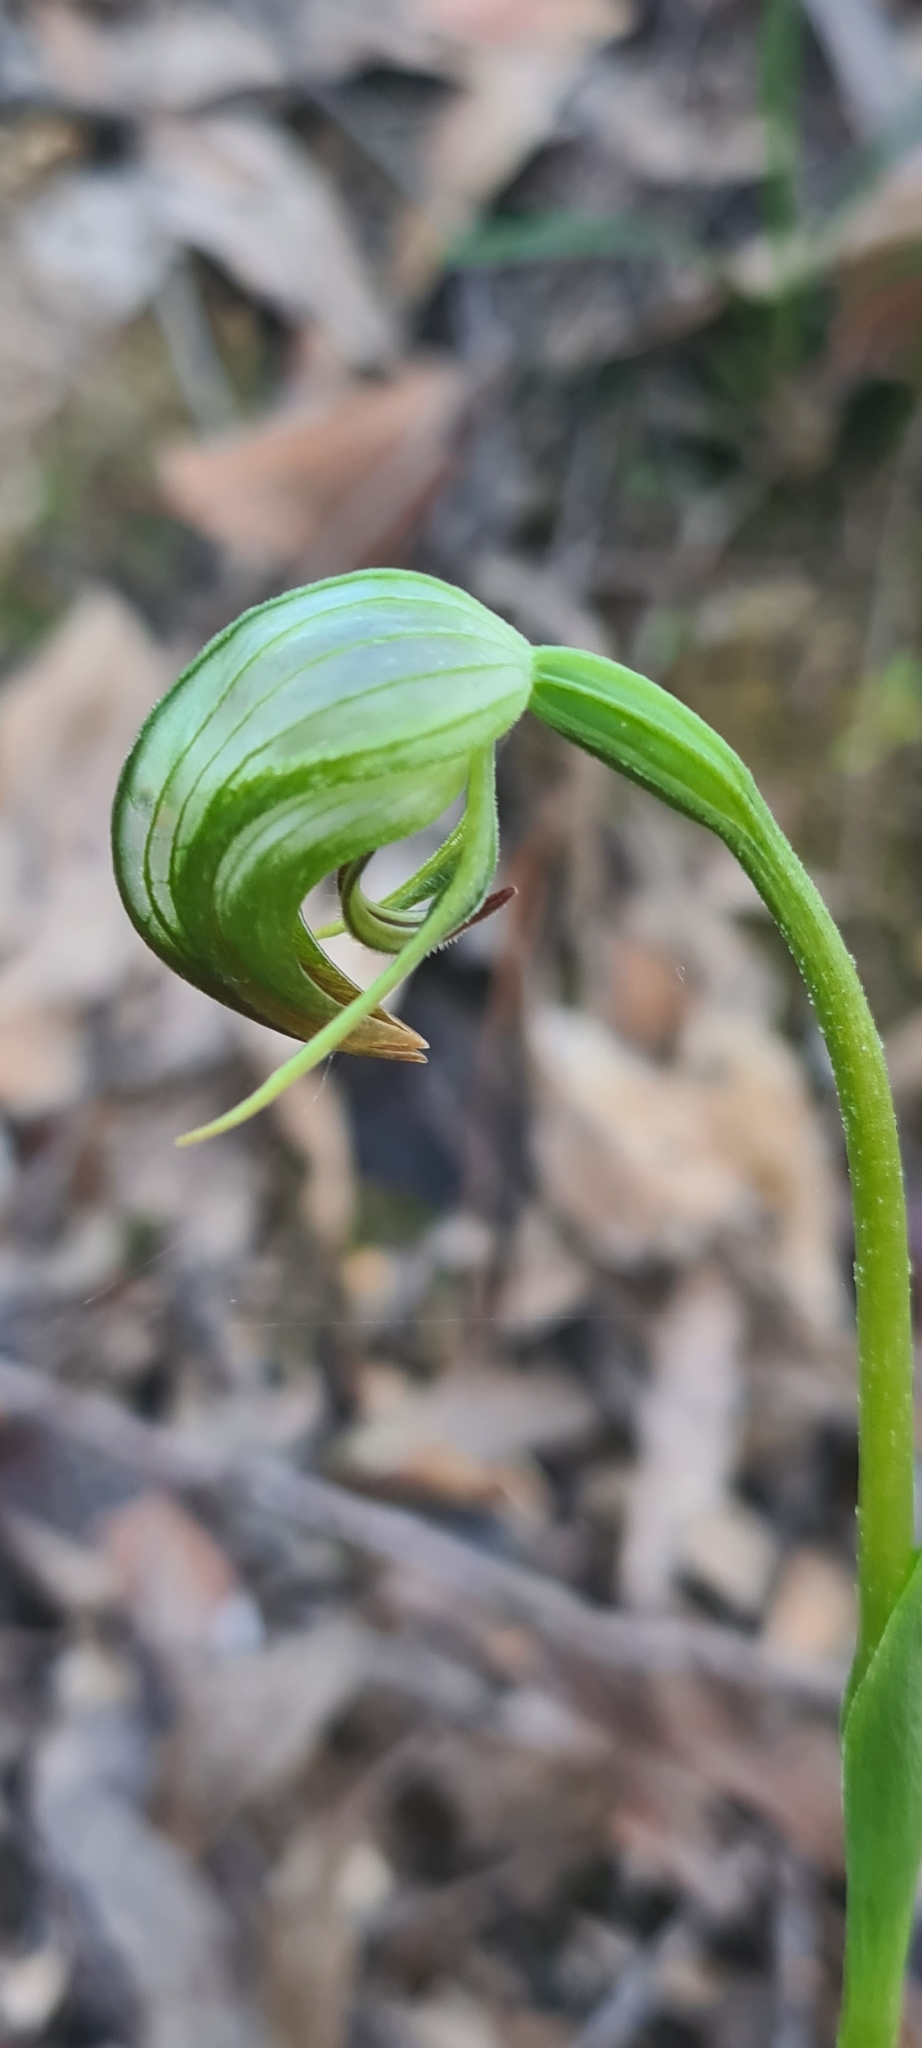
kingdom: Plantae
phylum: Tracheophyta
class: Liliopsida
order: Asparagales
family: Orchidaceae
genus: Pterostylis
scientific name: Pterostylis nutans
